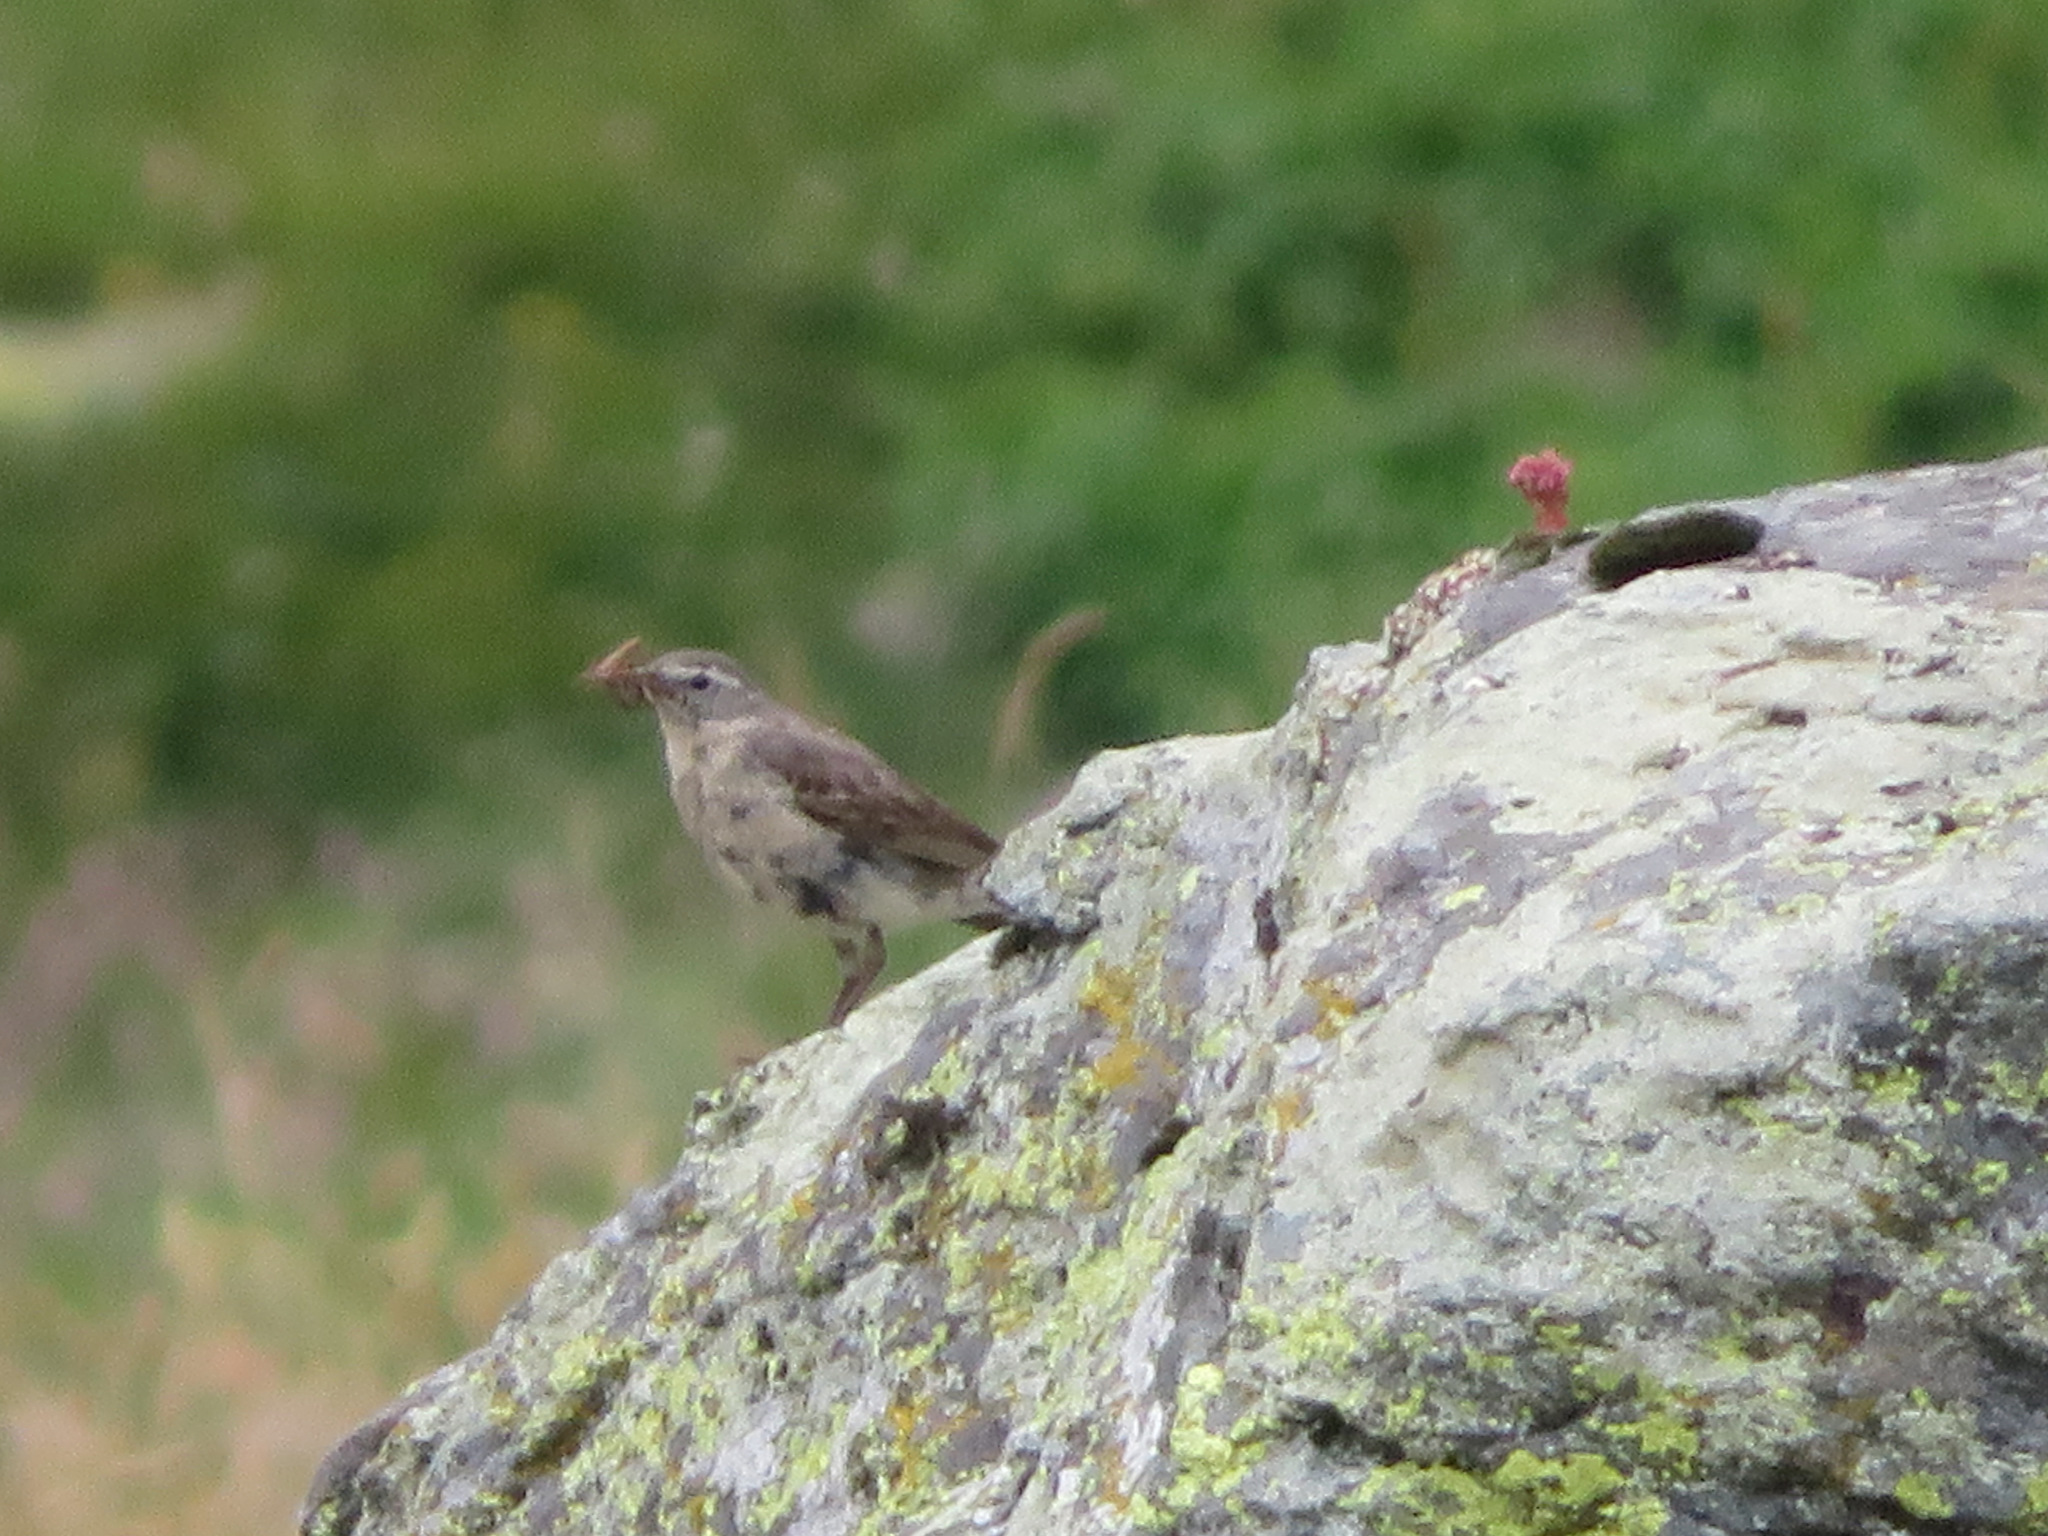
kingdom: Animalia
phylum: Chordata
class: Aves
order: Passeriformes
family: Motacillidae
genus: Anthus
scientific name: Anthus spinoletta
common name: Water pipit
